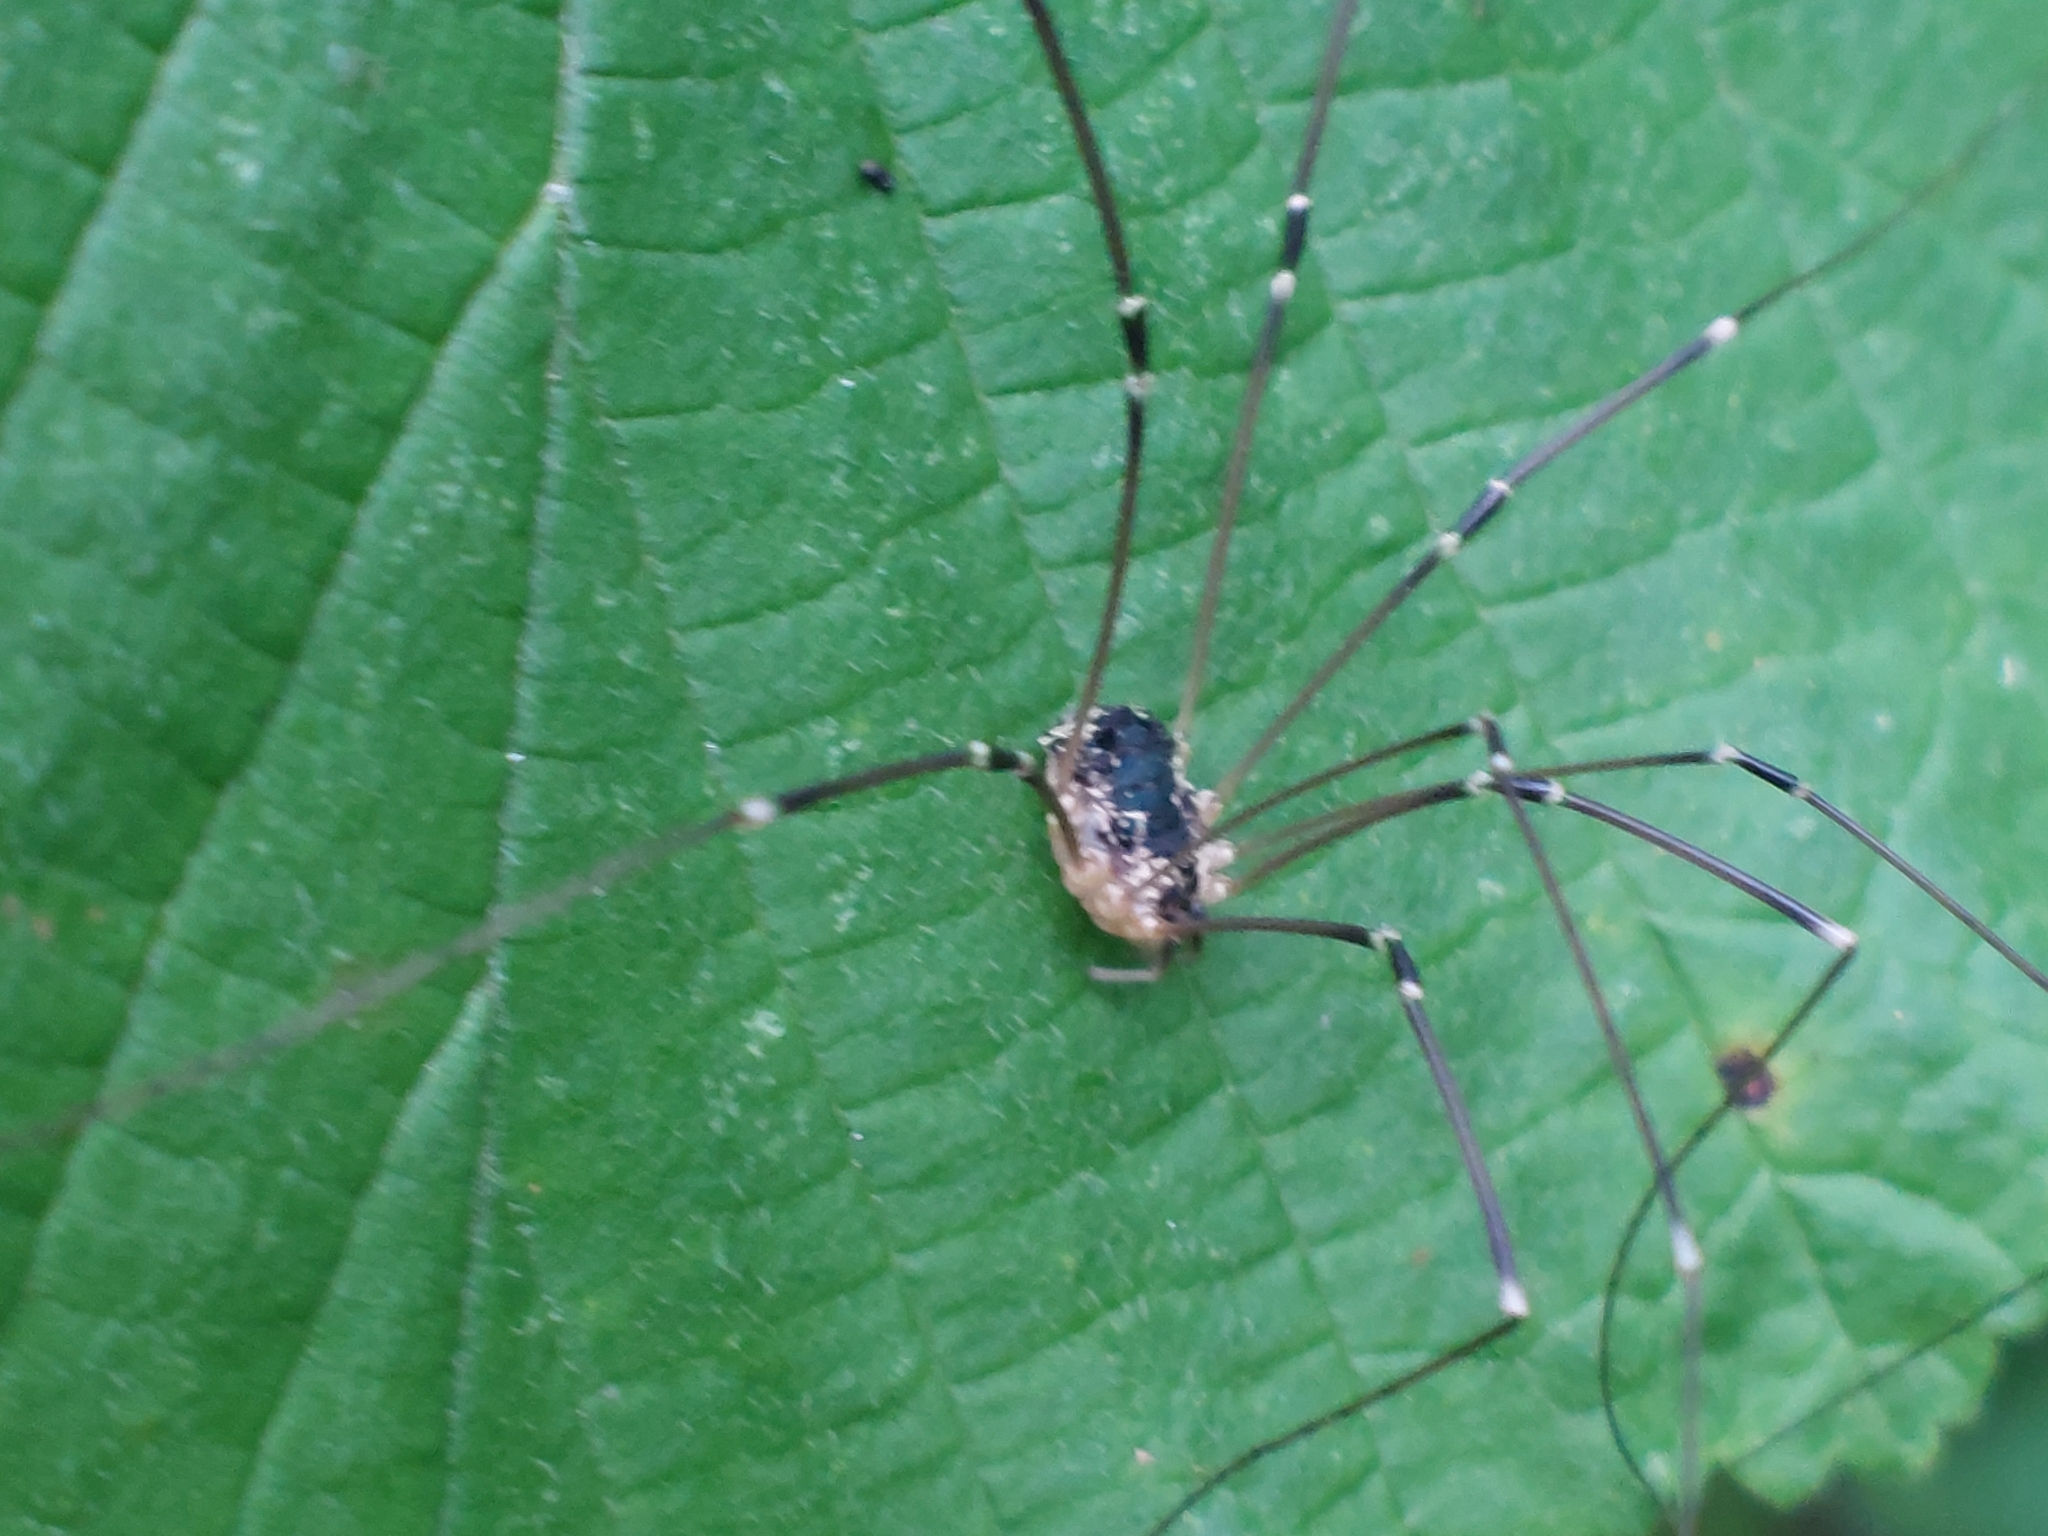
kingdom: Animalia
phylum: Arthropoda
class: Arachnida
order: Opiliones
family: Sclerosomatidae
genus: Leiobunum
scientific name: Leiobunum gracile
